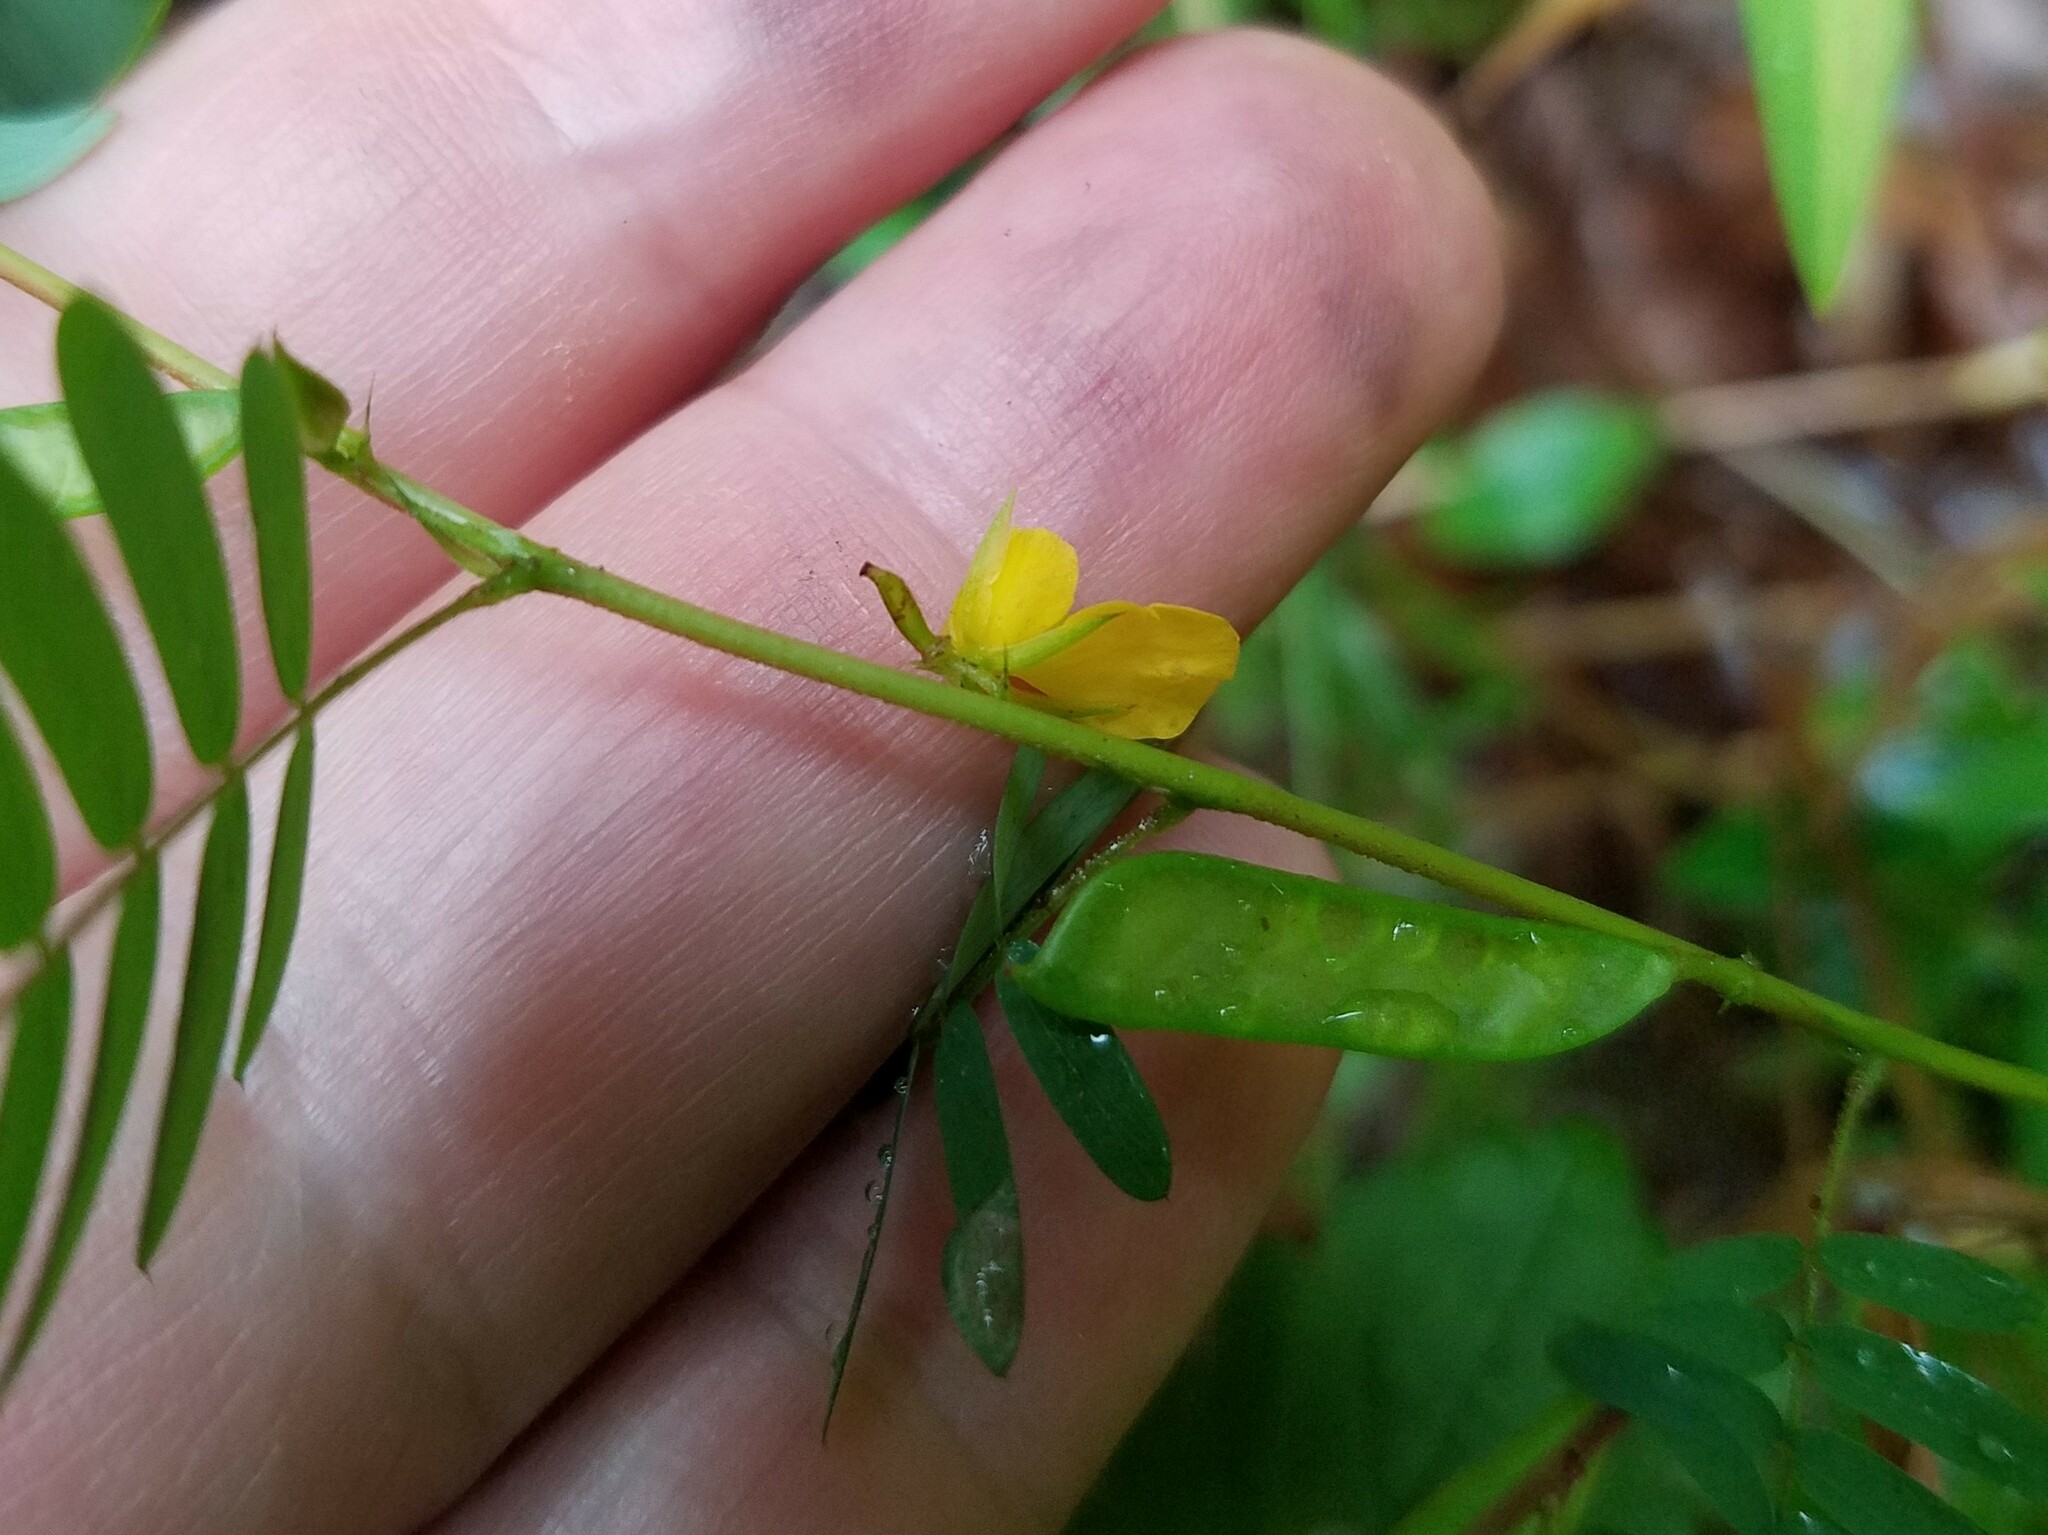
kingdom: Plantae
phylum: Tracheophyta
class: Magnoliopsida
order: Fabales
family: Fabaceae
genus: Chamaecrista
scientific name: Chamaecrista nictitans
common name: Sensitive cassia
